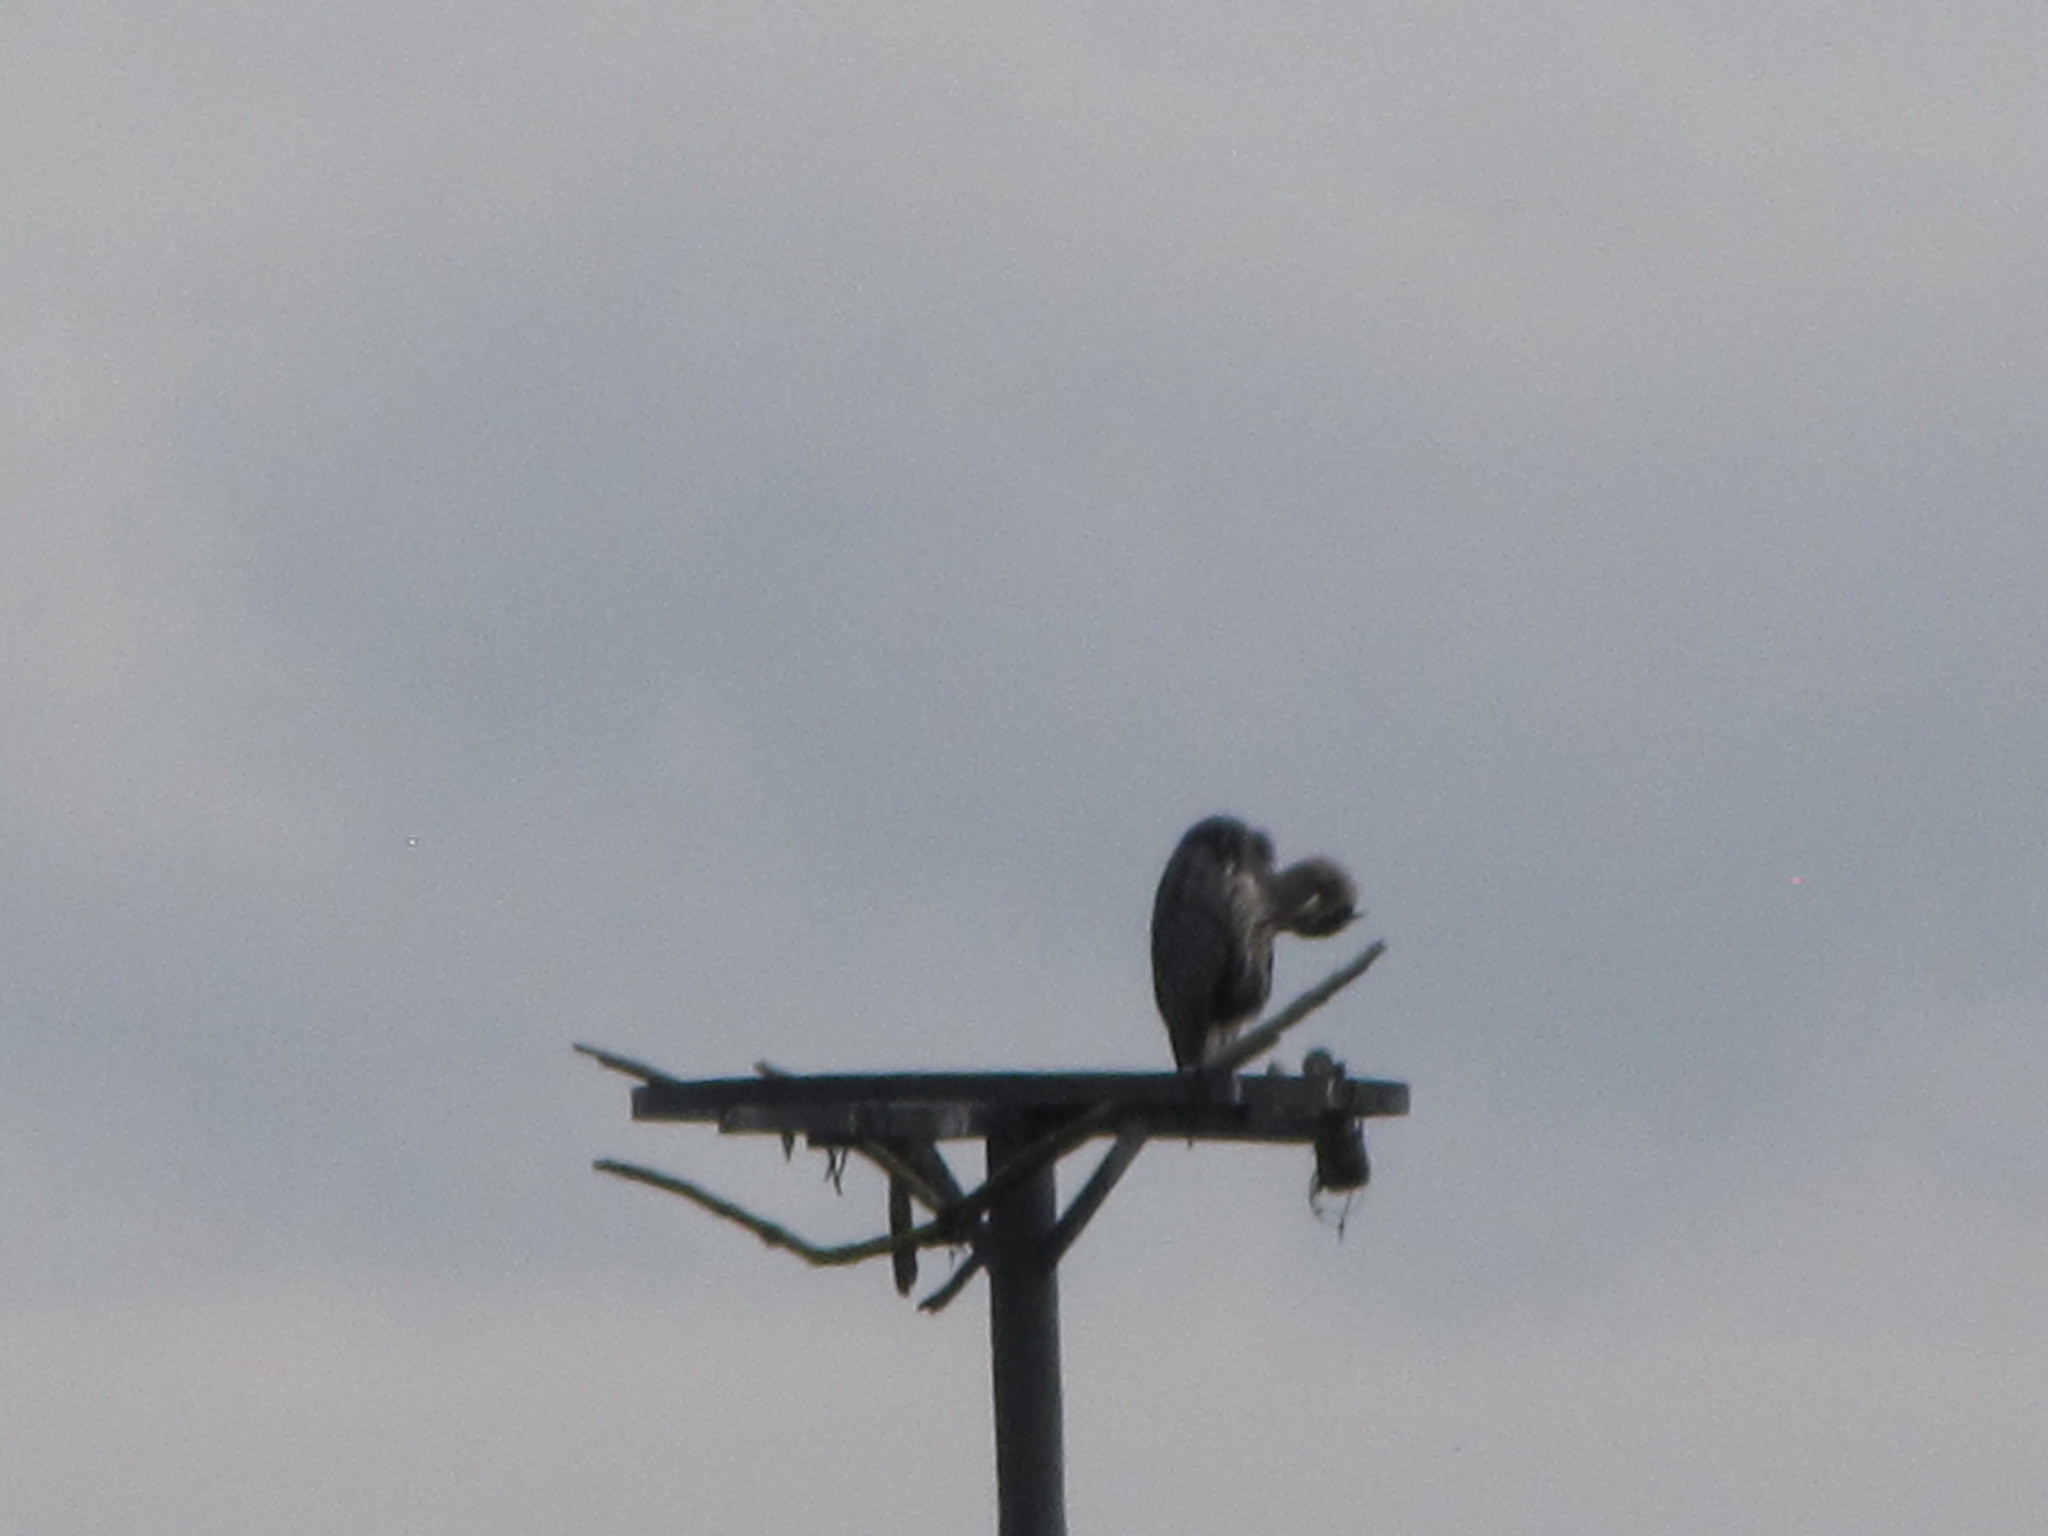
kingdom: Animalia
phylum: Chordata
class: Aves
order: Pelecaniformes
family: Ardeidae
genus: Ardea
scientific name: Ardea herodias
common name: Great blue heron
